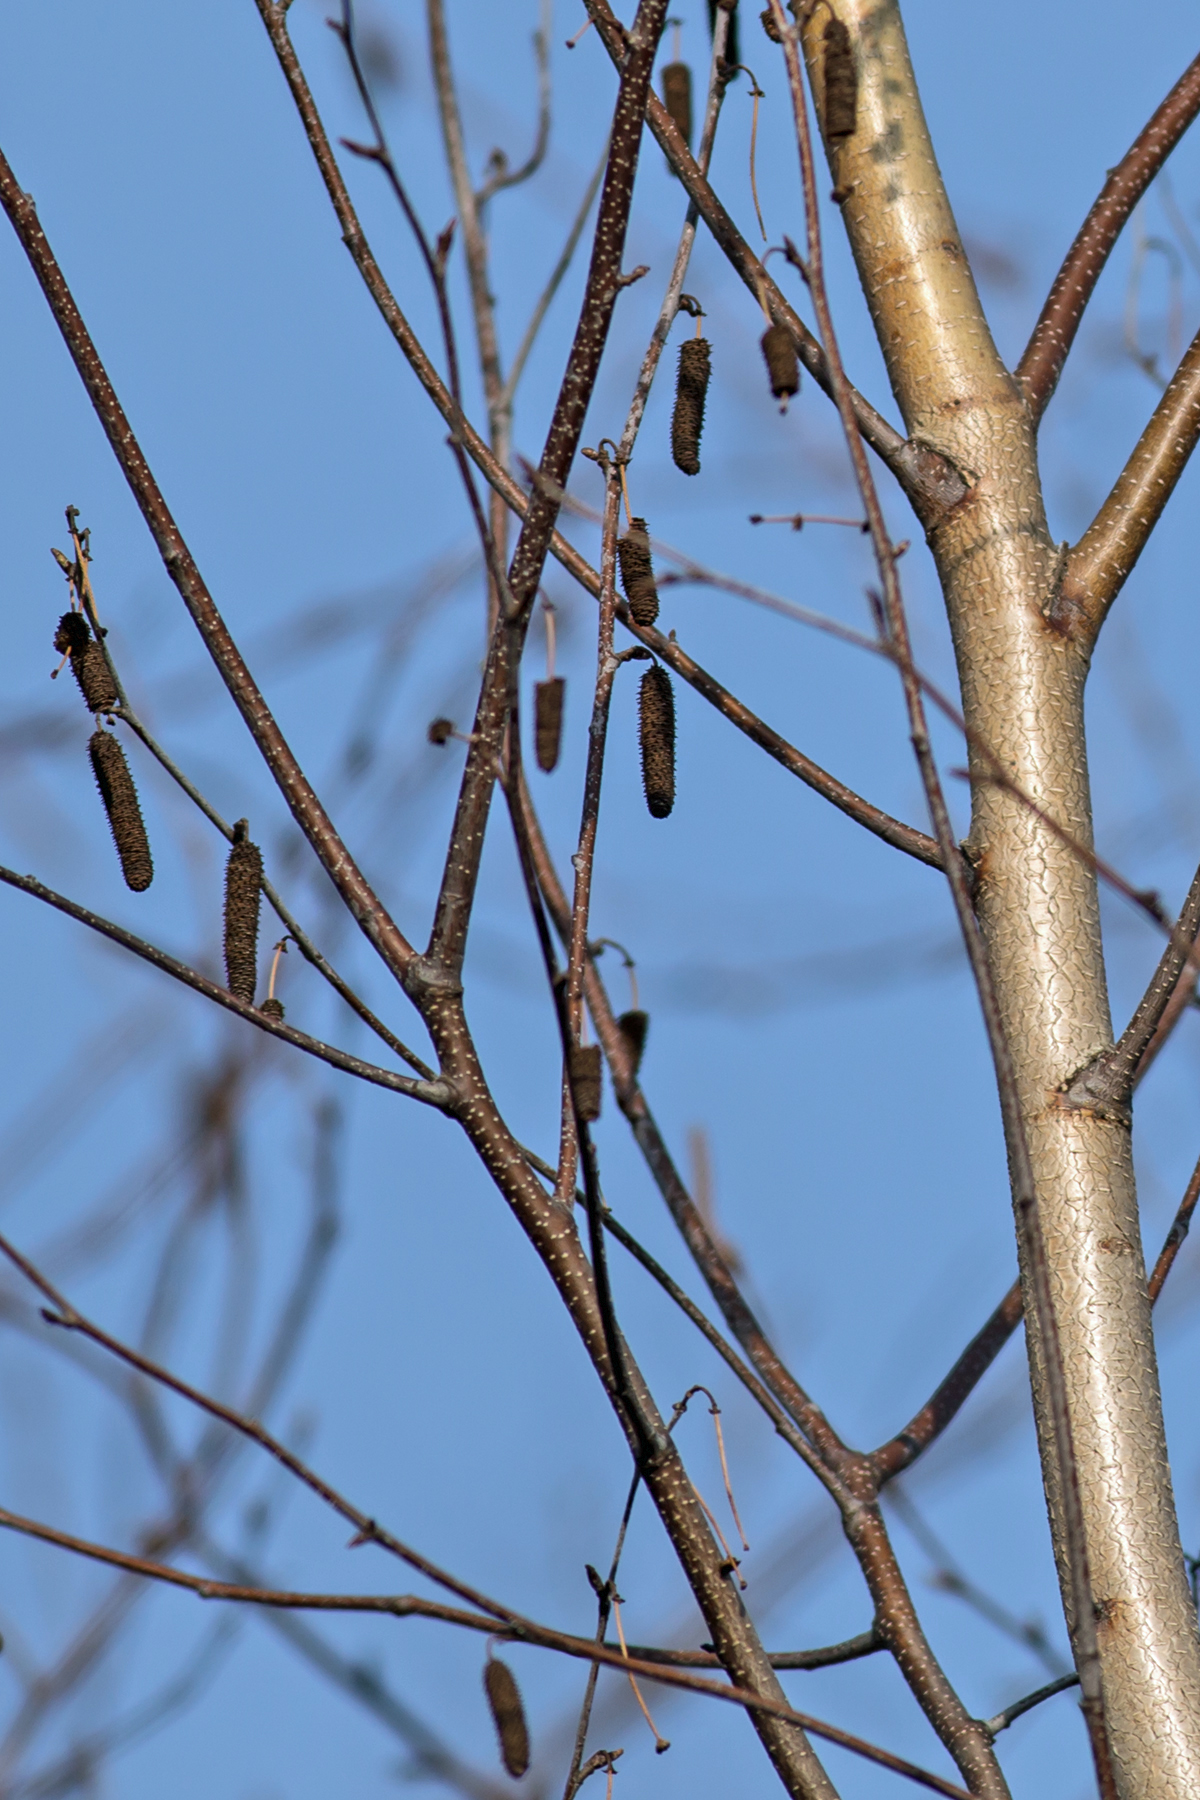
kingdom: Plantae
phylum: Tracheophyta
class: Magnoliopsida
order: Fagales
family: Betulaceae
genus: Alnus
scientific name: Alnus incana
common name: Grey alder
